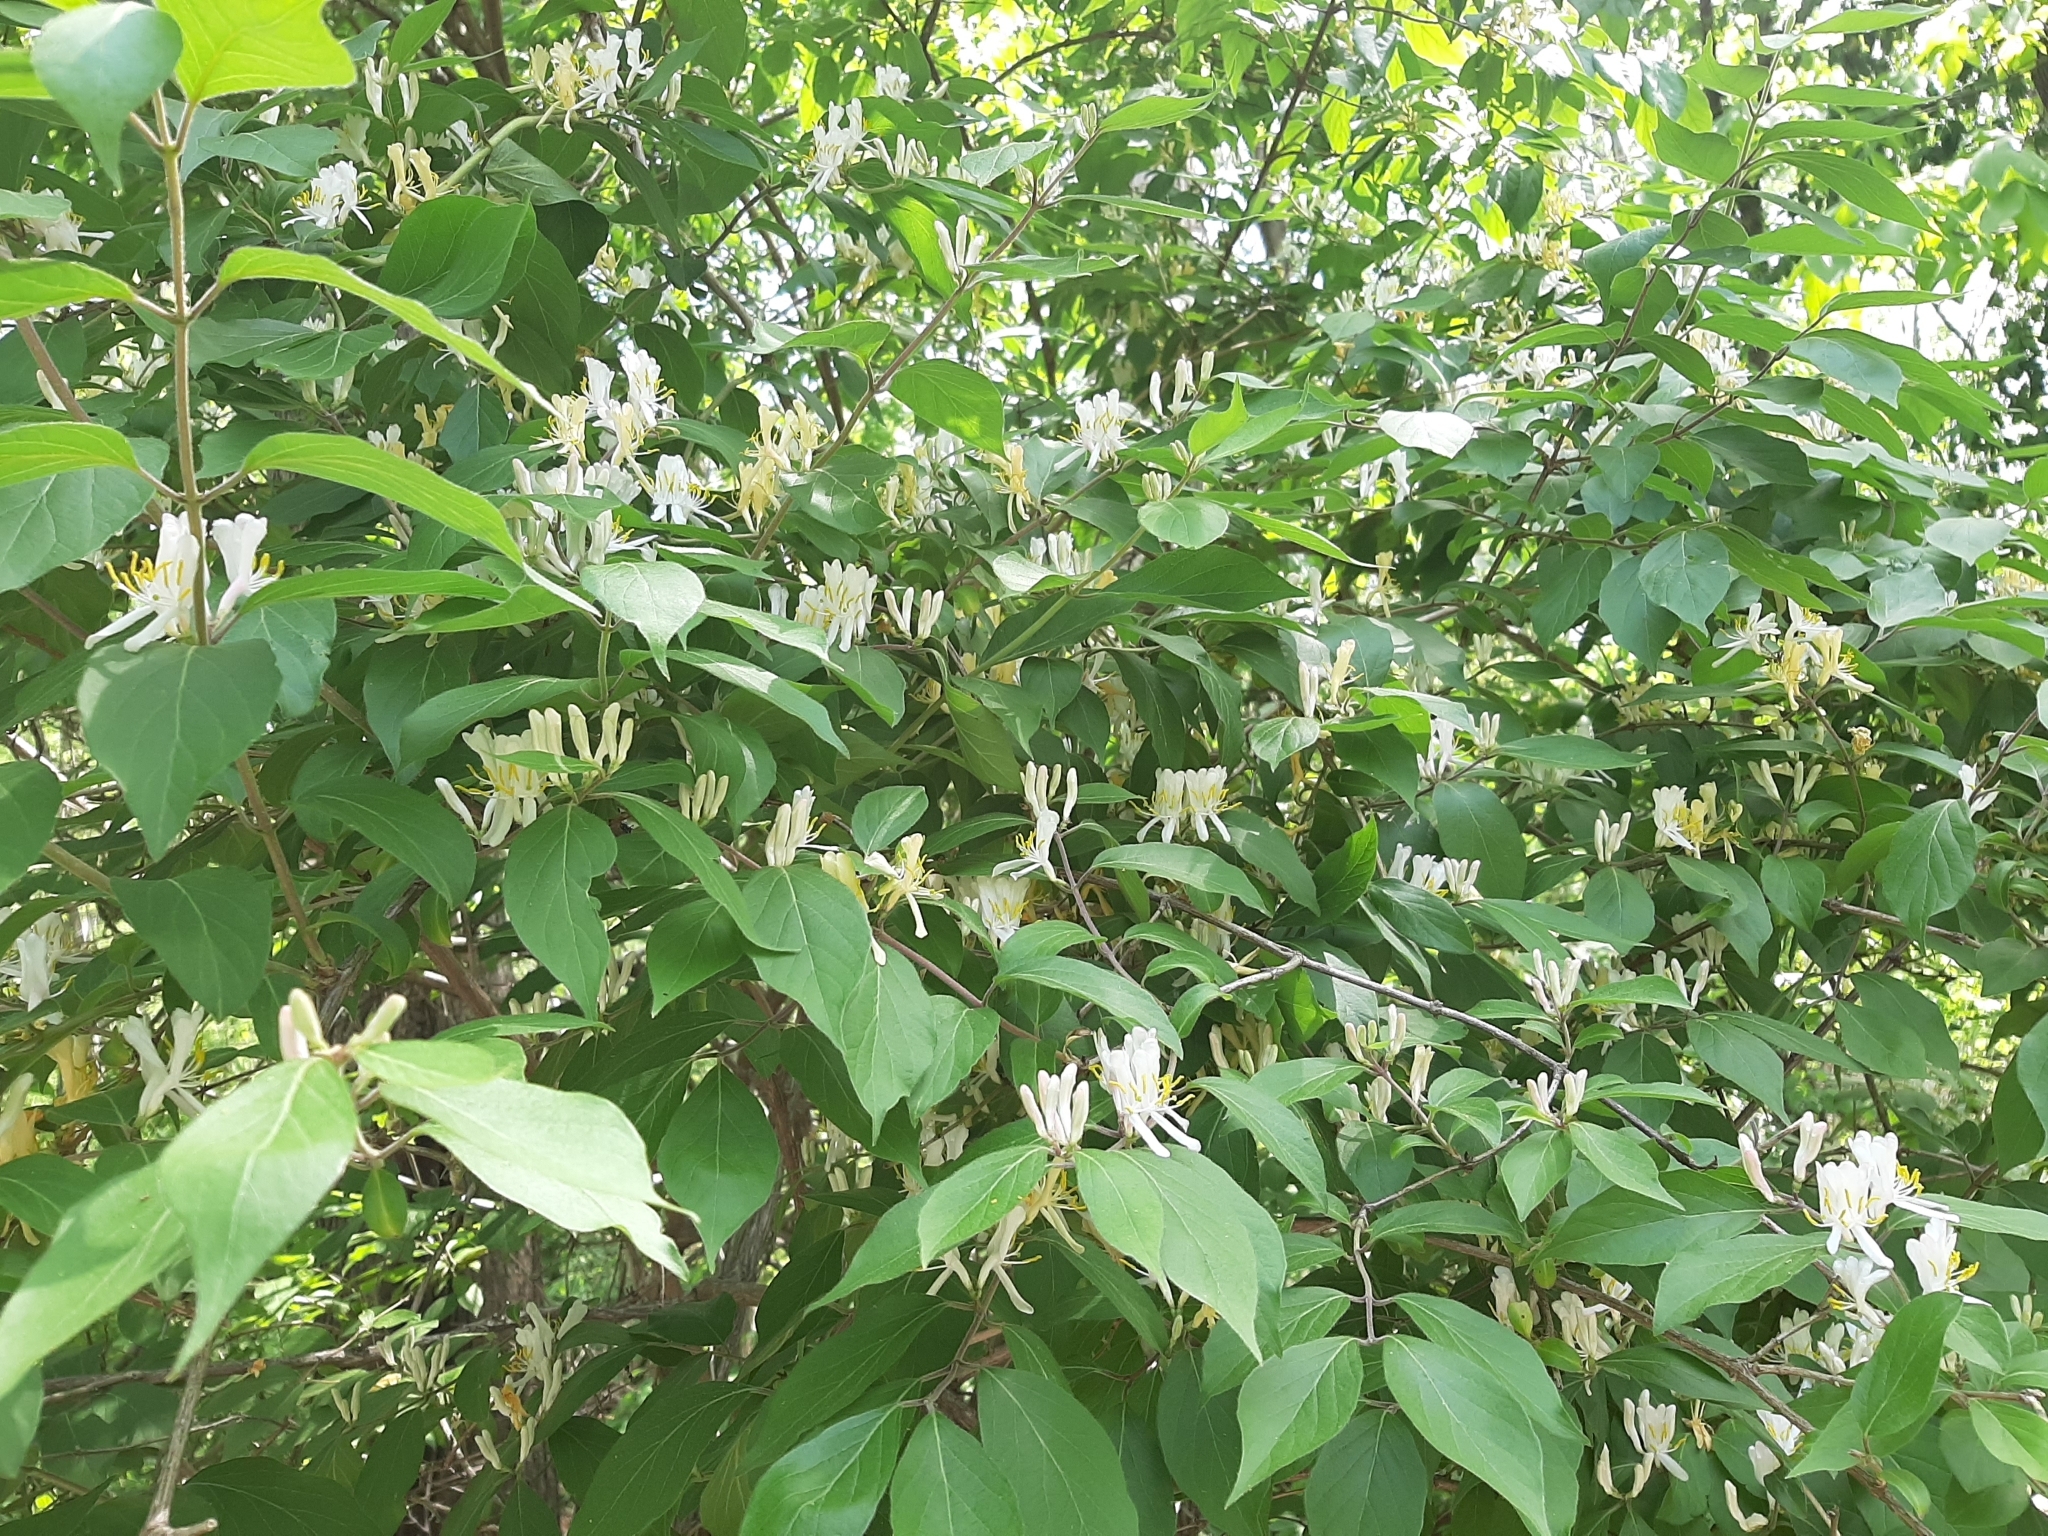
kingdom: Plantae
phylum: Tracheophyta
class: Magnoliopsida
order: Dipsacales
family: Caprifoliaceae
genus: Lonicera
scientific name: Lonicera maackii
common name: Amur honeysuckle
